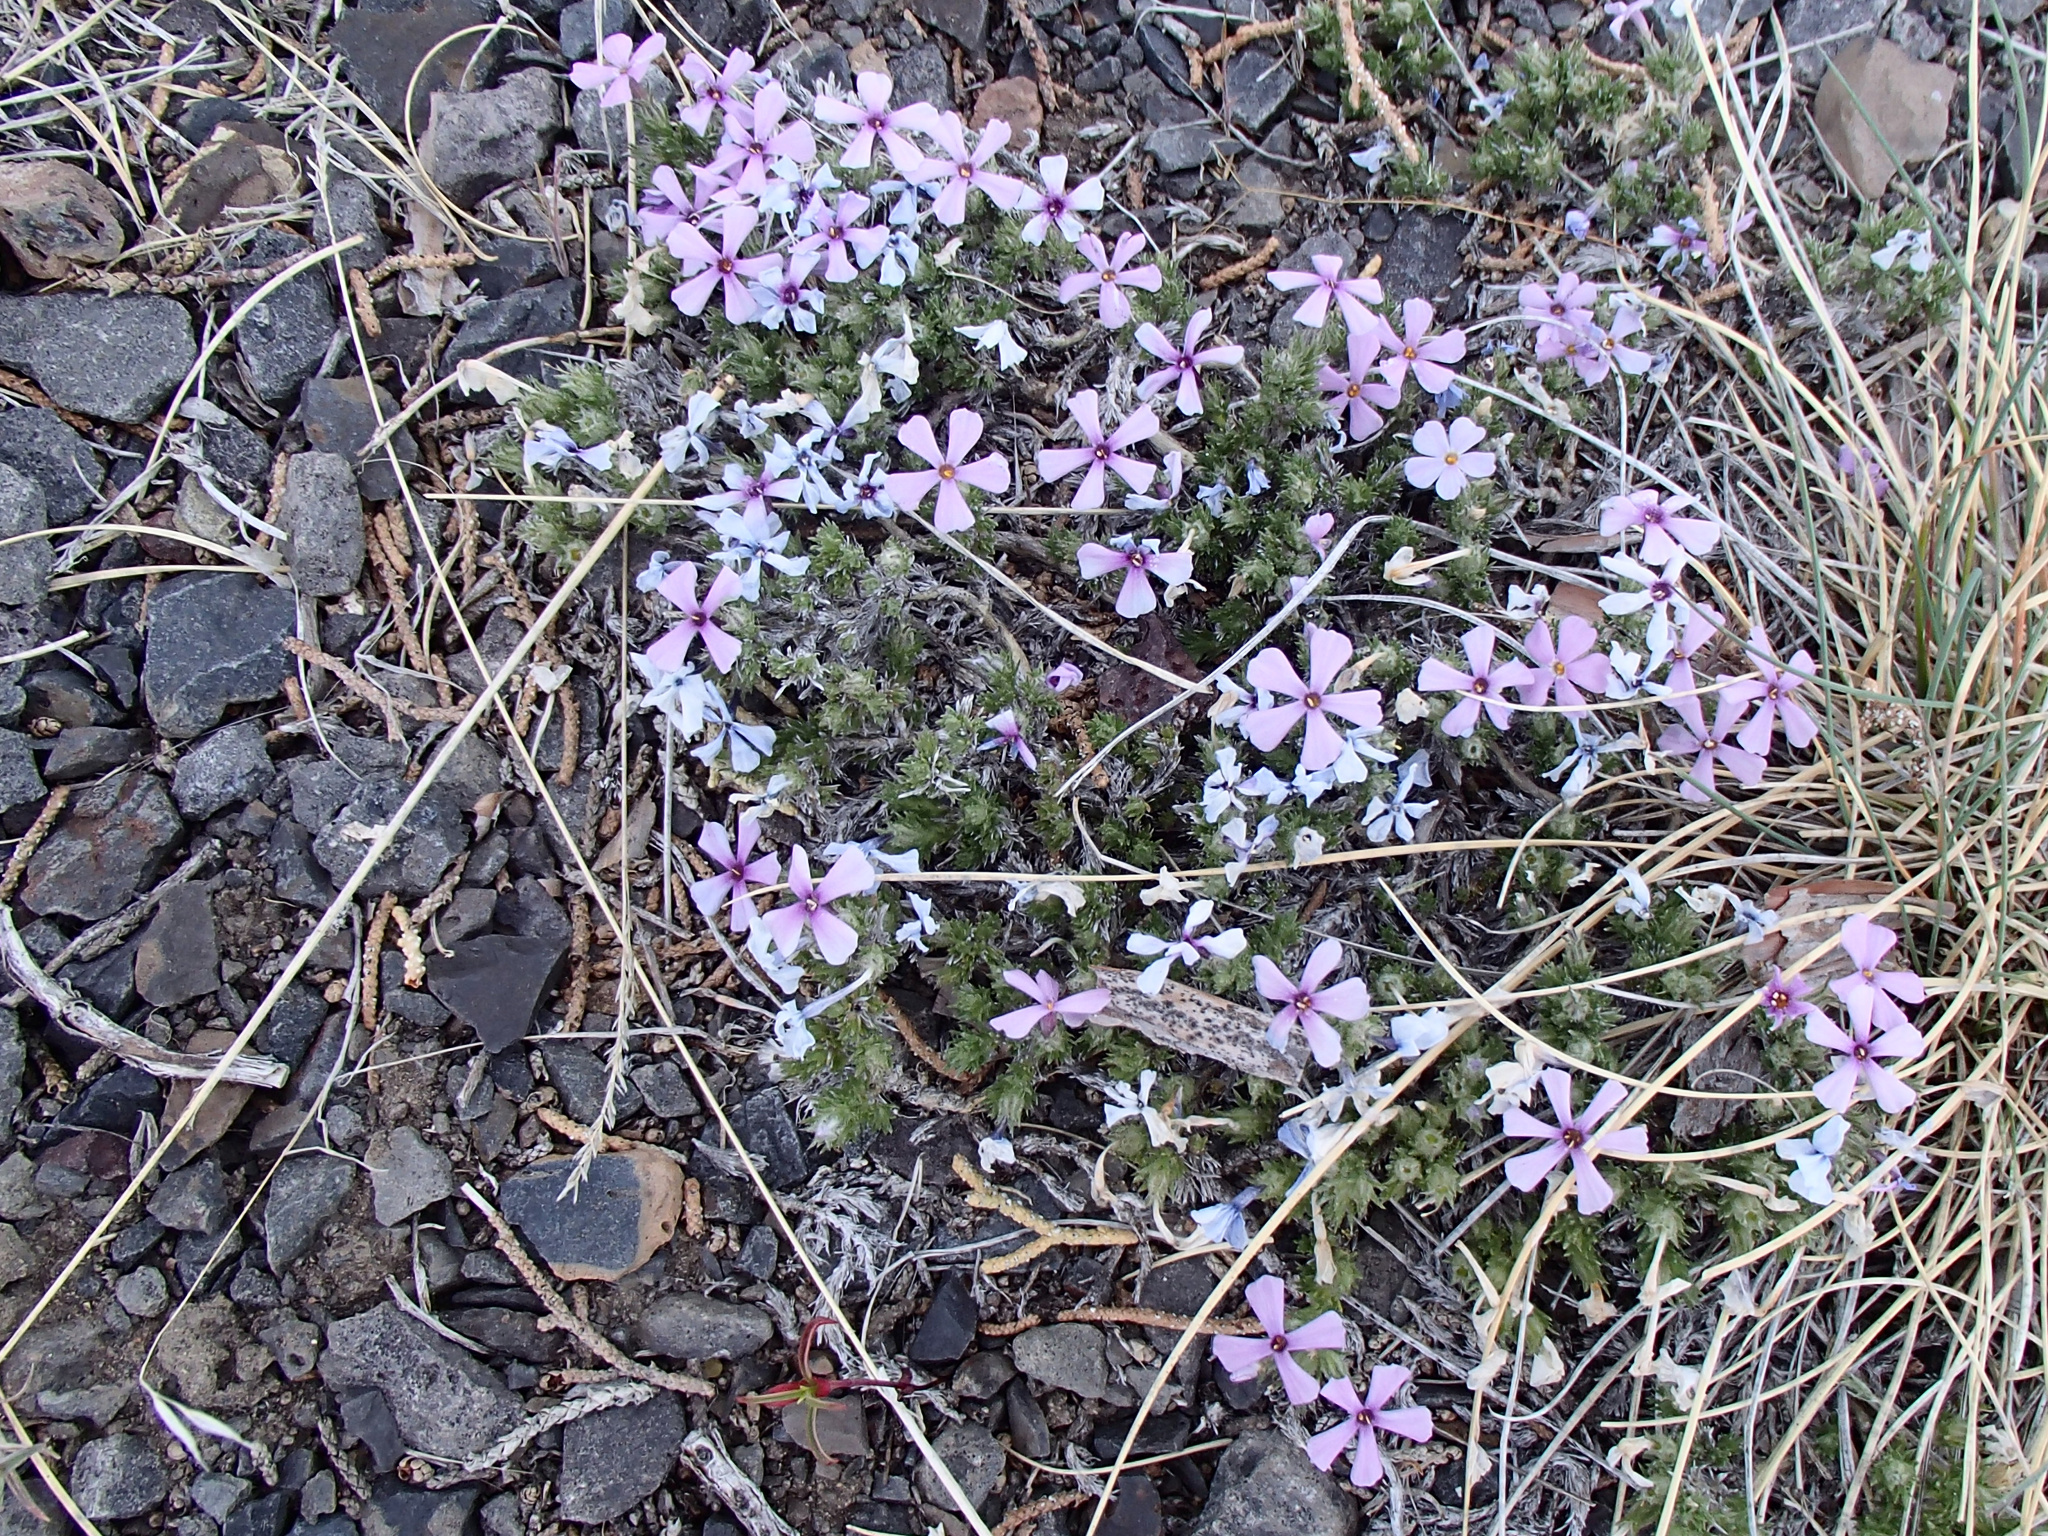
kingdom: Plantae
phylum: Tracheophyta
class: Magnoliopsida
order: Ericales
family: Polemoniaceae
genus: Phlox
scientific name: Phlox douglasii
